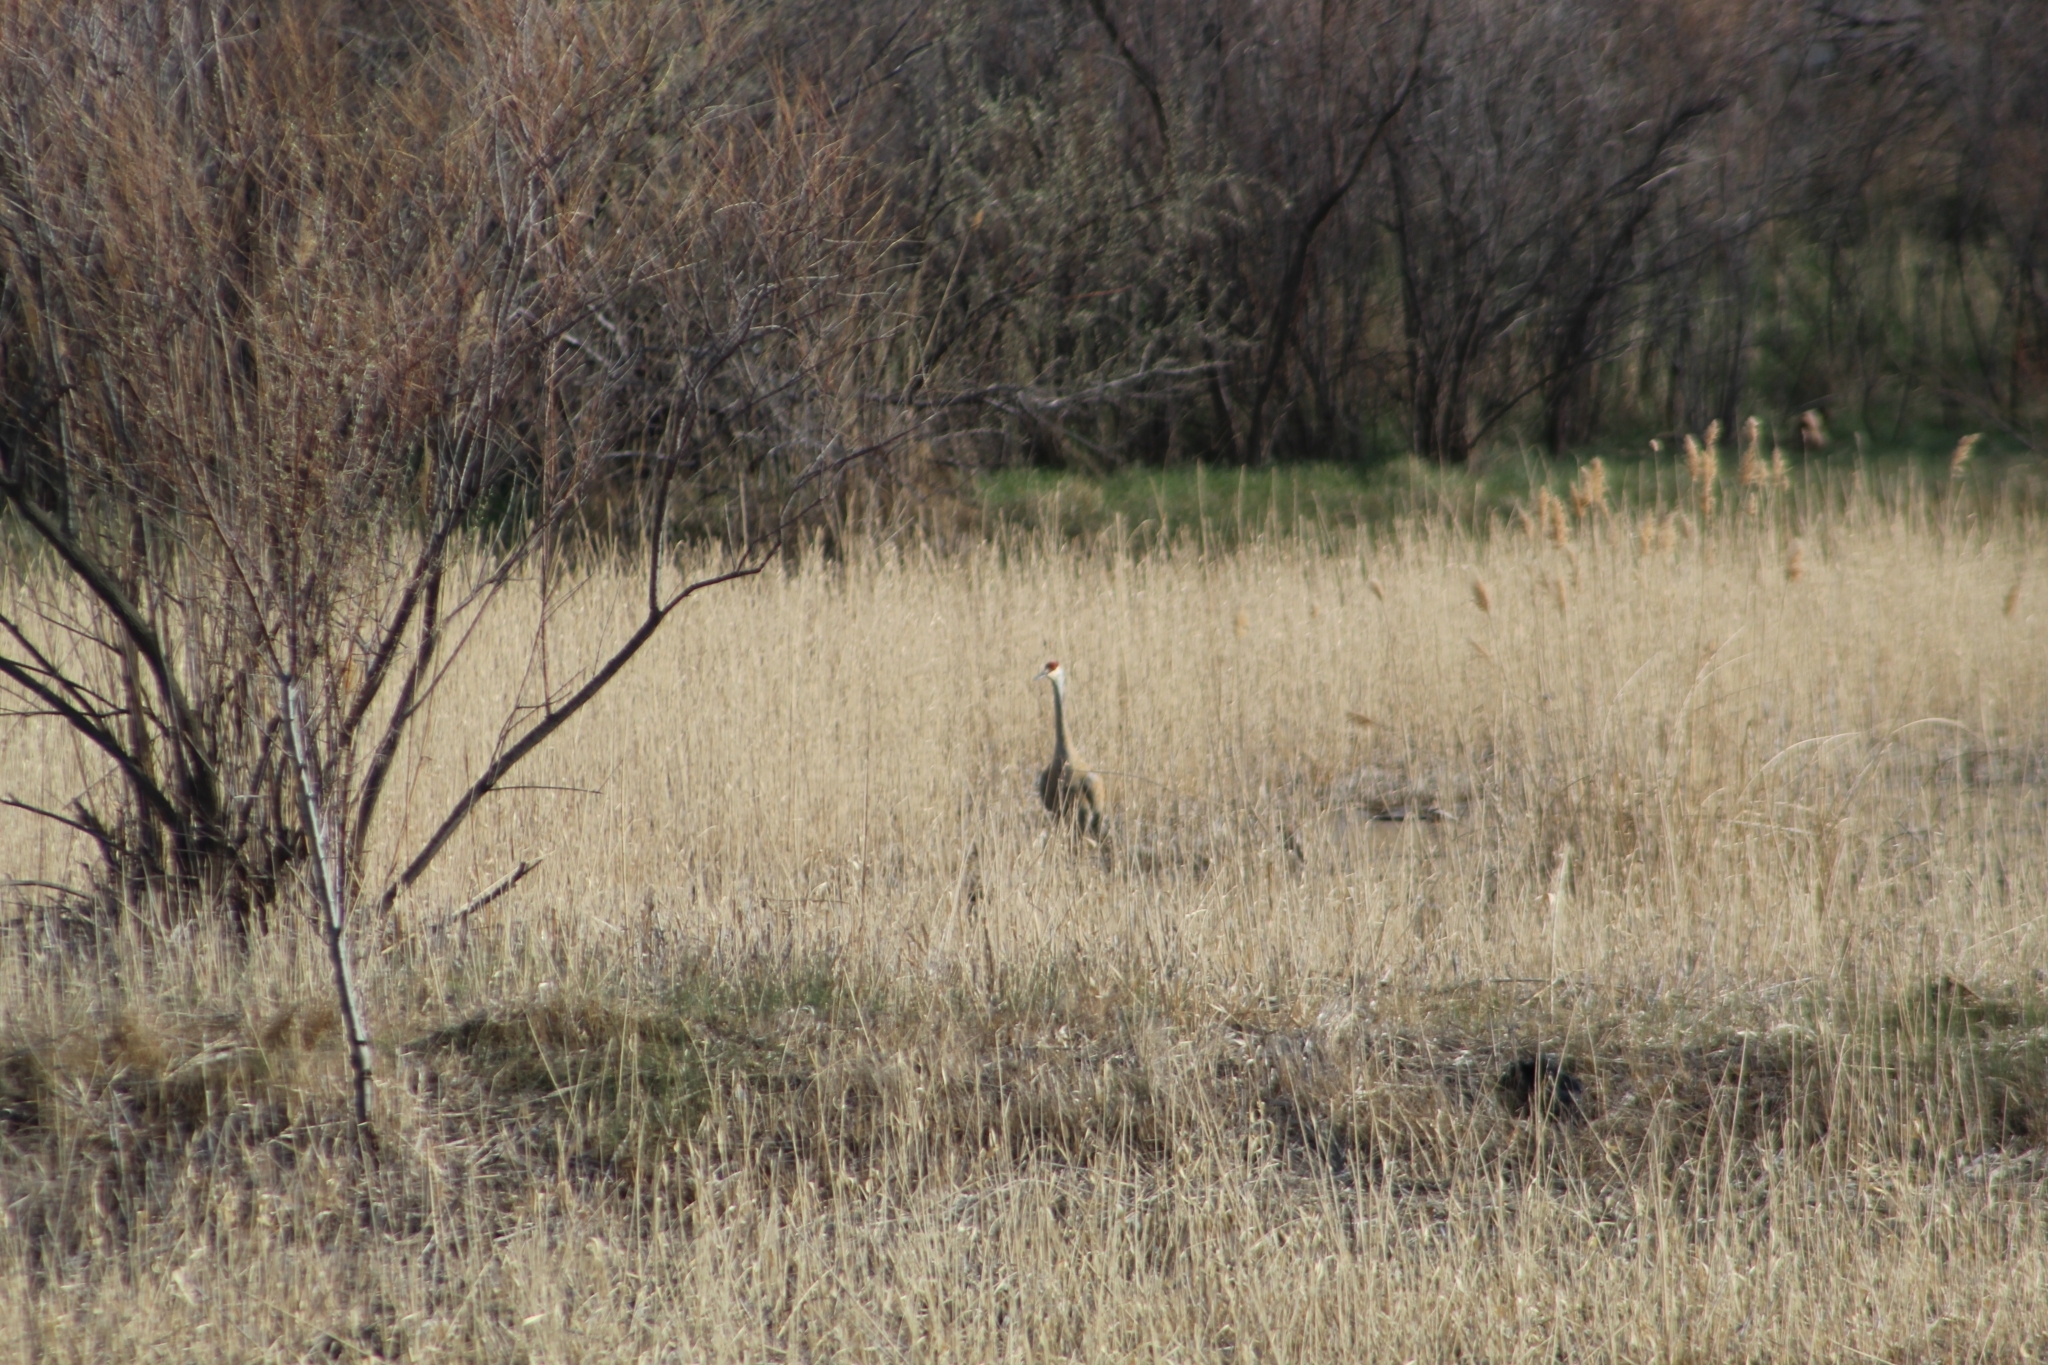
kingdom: Animalia
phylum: Chordata
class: Aves
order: Gruiformes
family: Gruidae
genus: Grus
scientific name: Grus canadensis
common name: Sandhill crane
